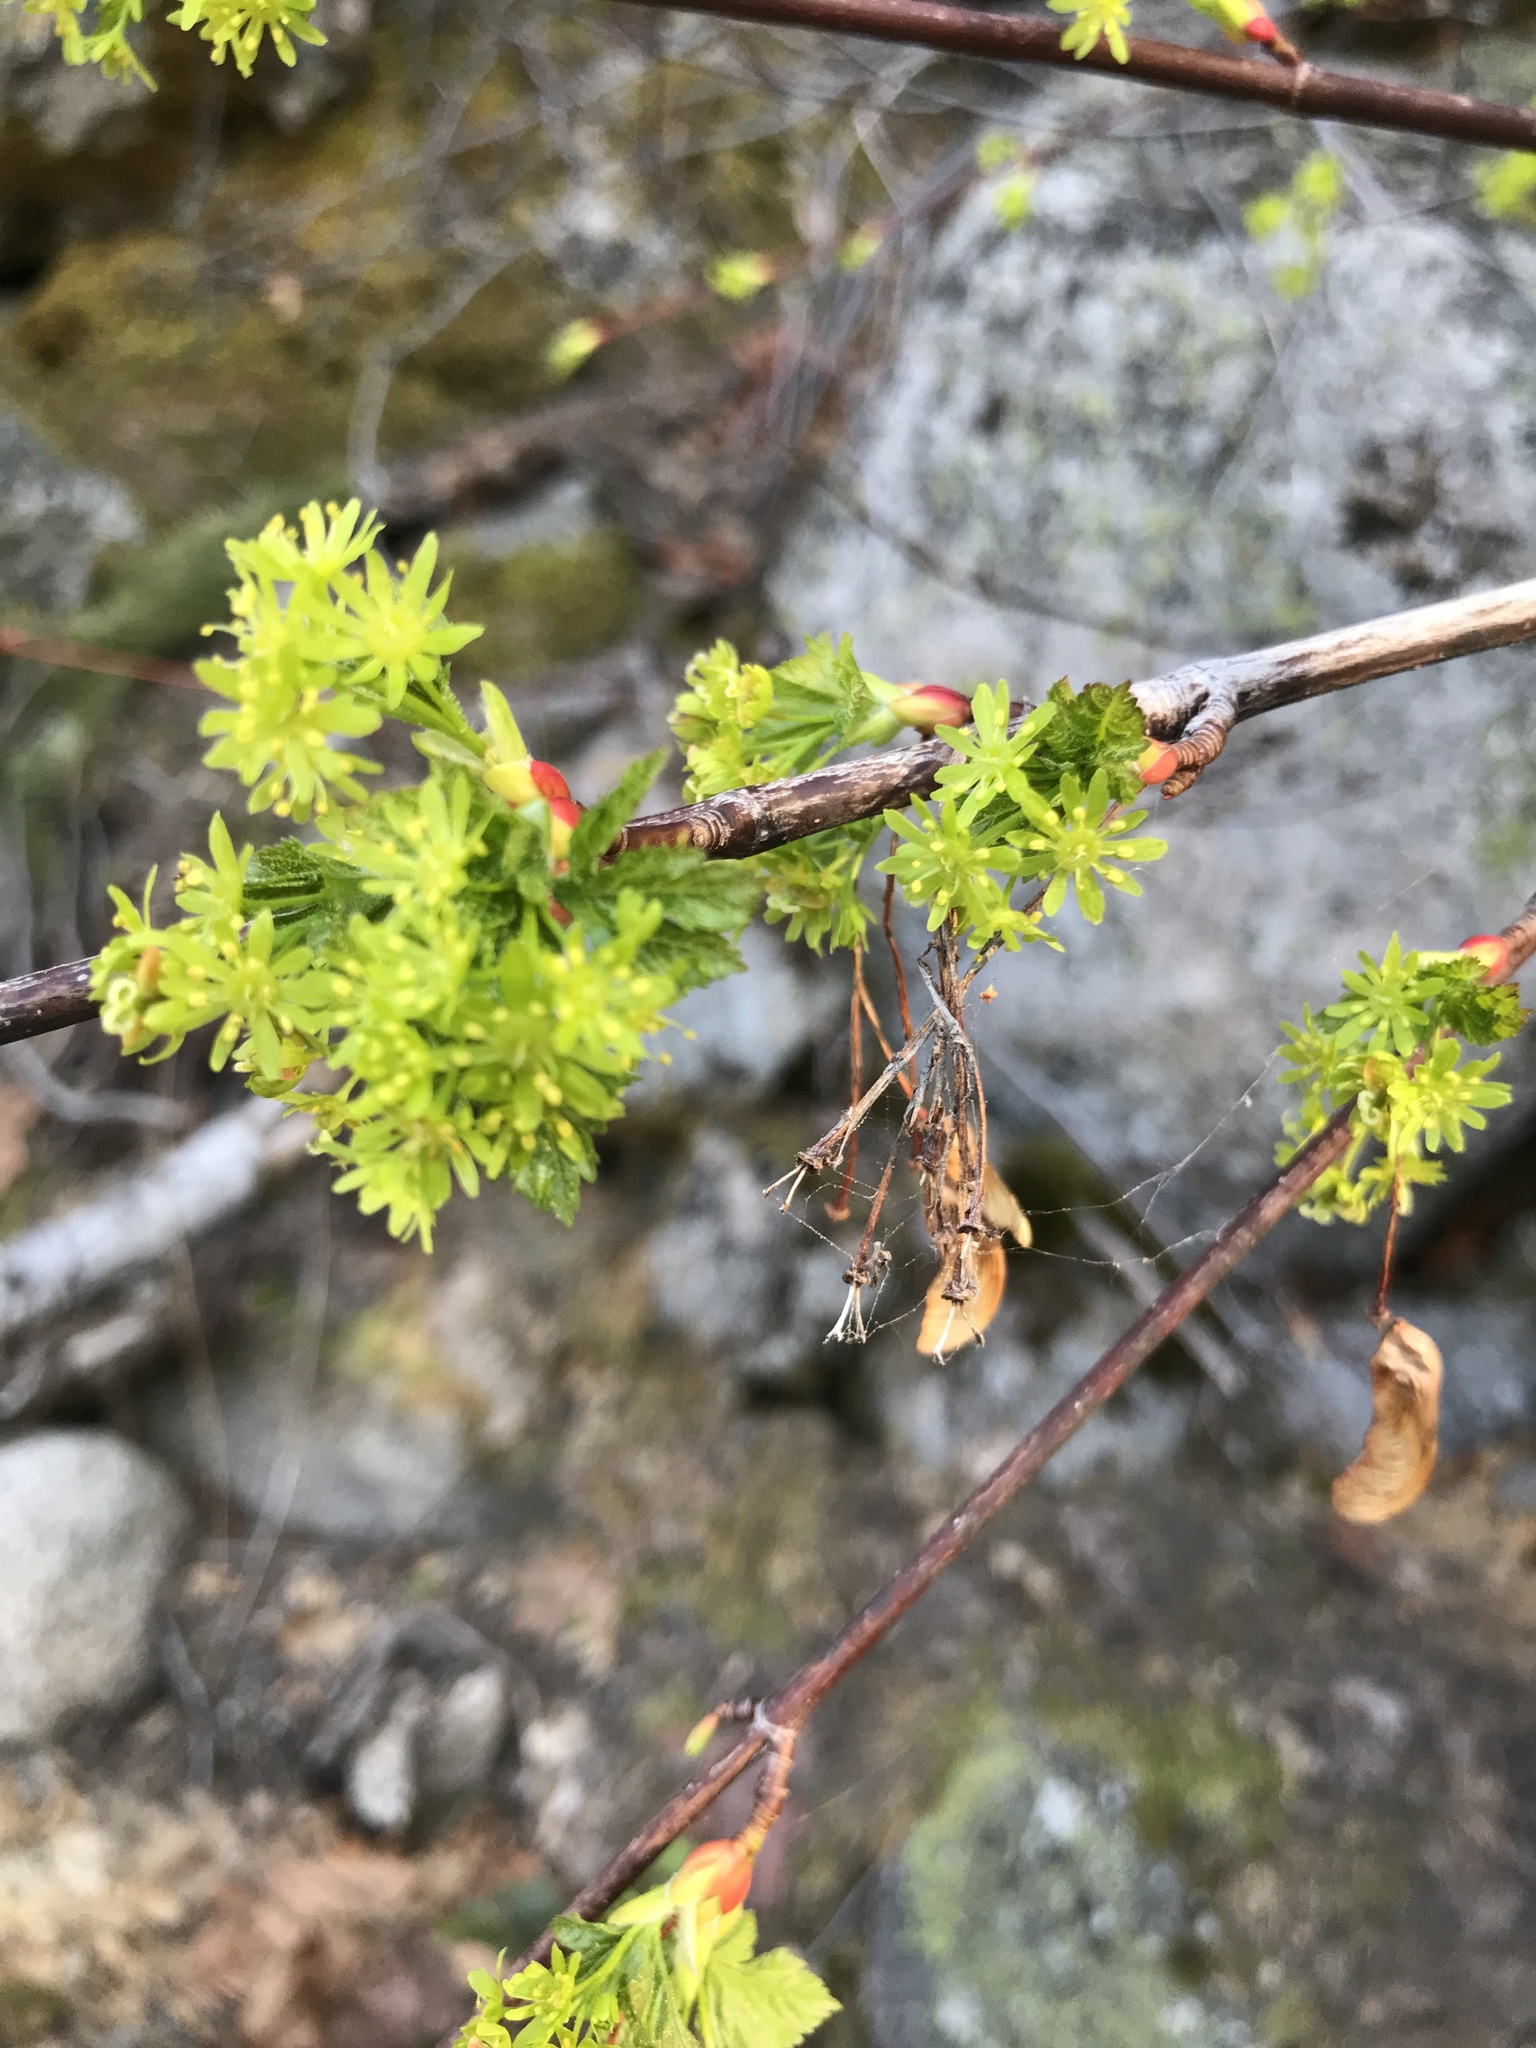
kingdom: Plantae
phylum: Tracheophyta
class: Magnoliopsida
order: Sapindales
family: Sapindaceae
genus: Acer
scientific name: Acer glabrum
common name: Rocky mountain maple
